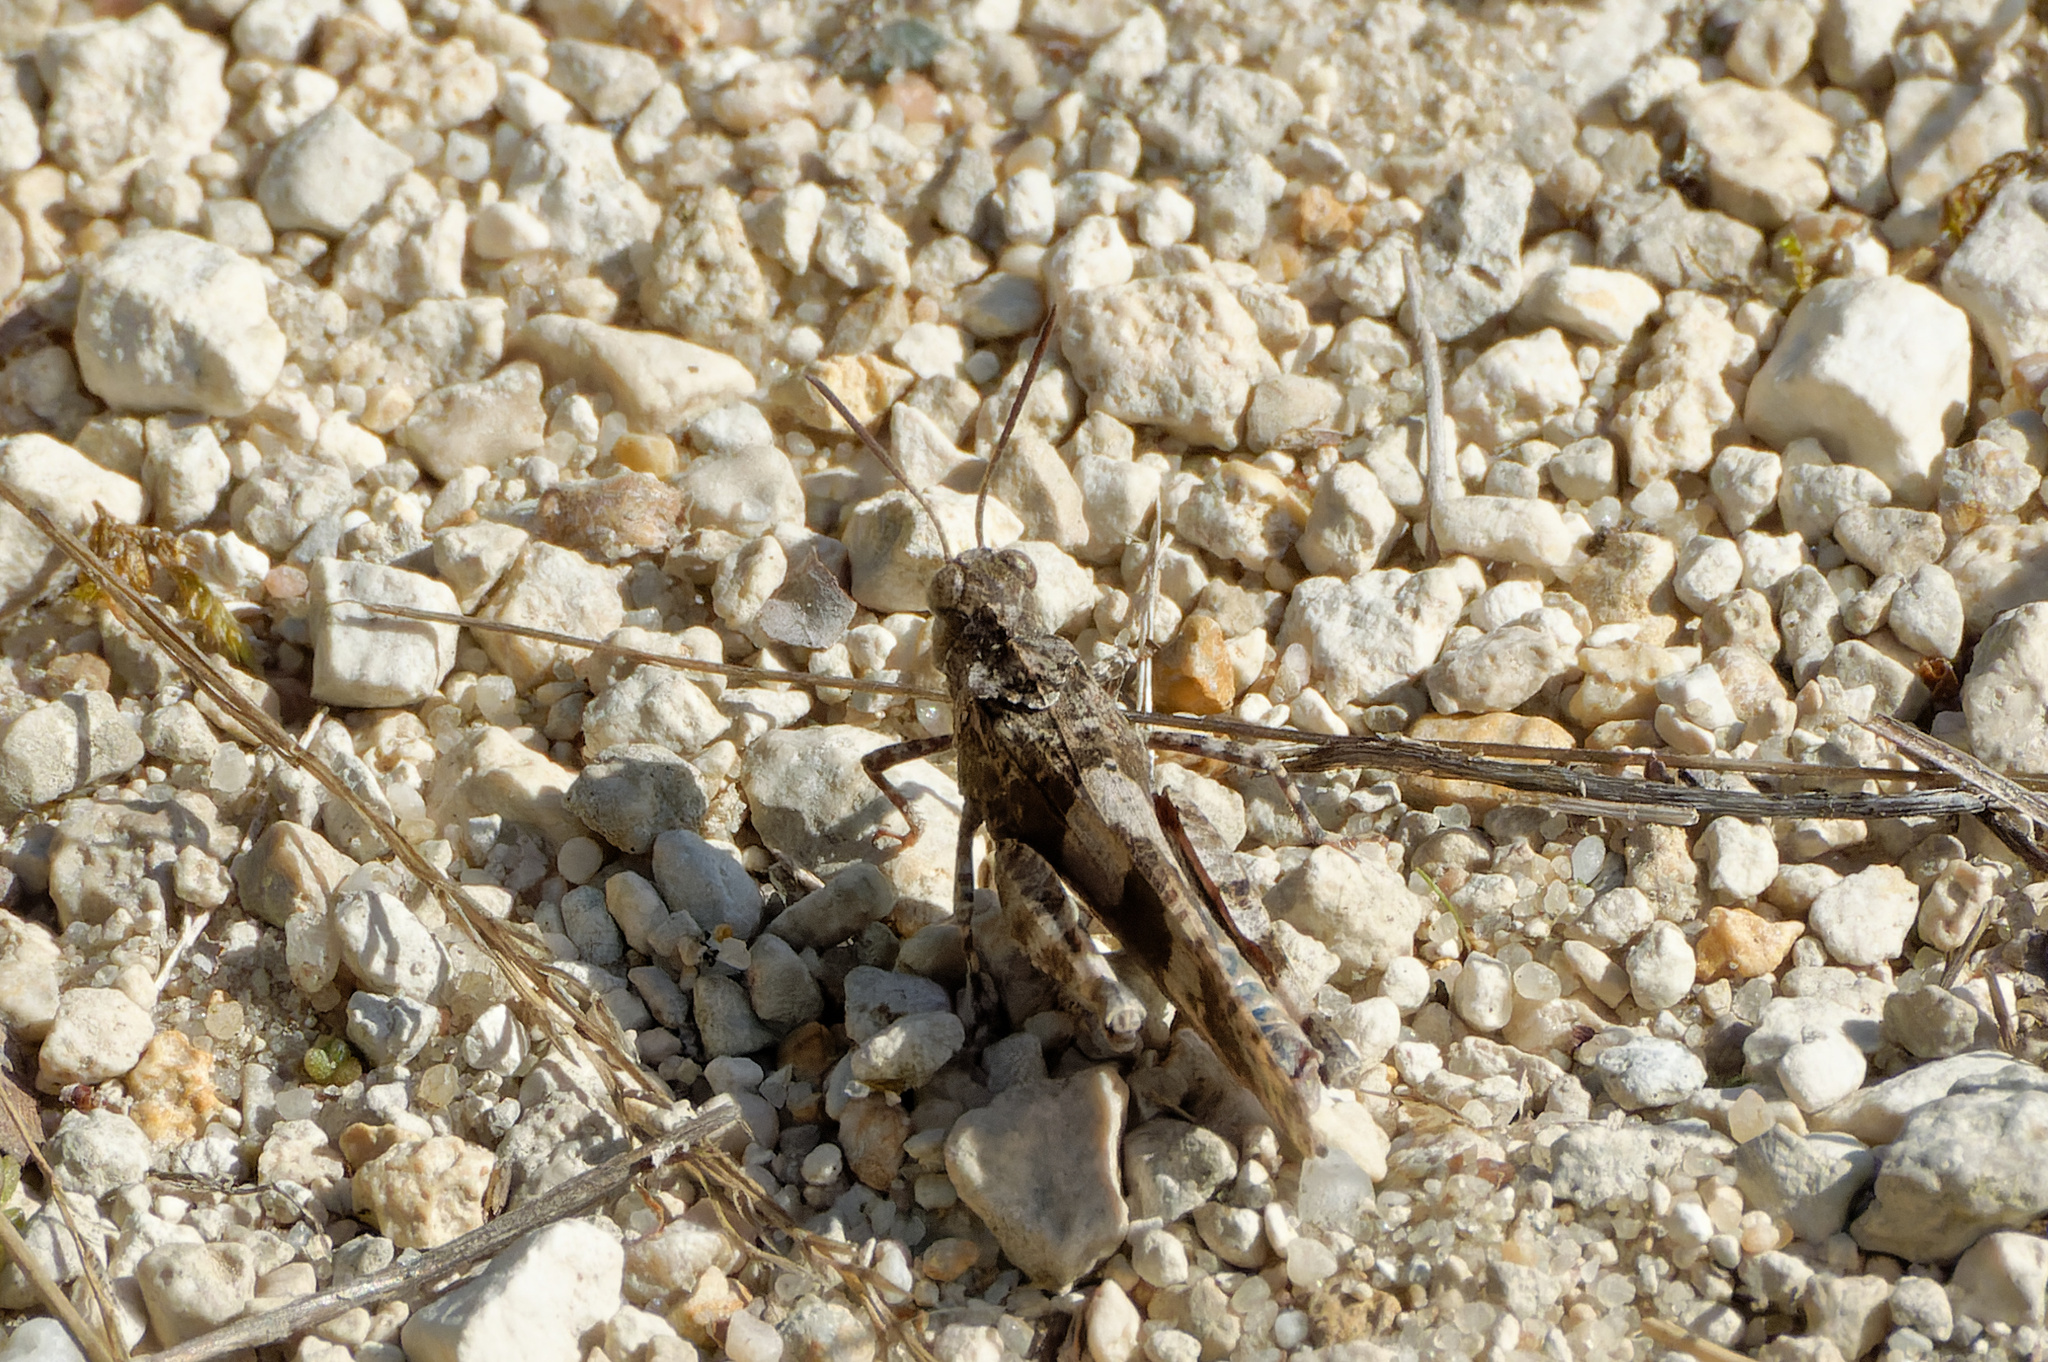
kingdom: Animalia
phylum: Arthropoda
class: Insecta
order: Orthoptera
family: Acrididae
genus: Oedipoda
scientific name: Oedipoda caerulescens
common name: Blue-winged grasshopper
